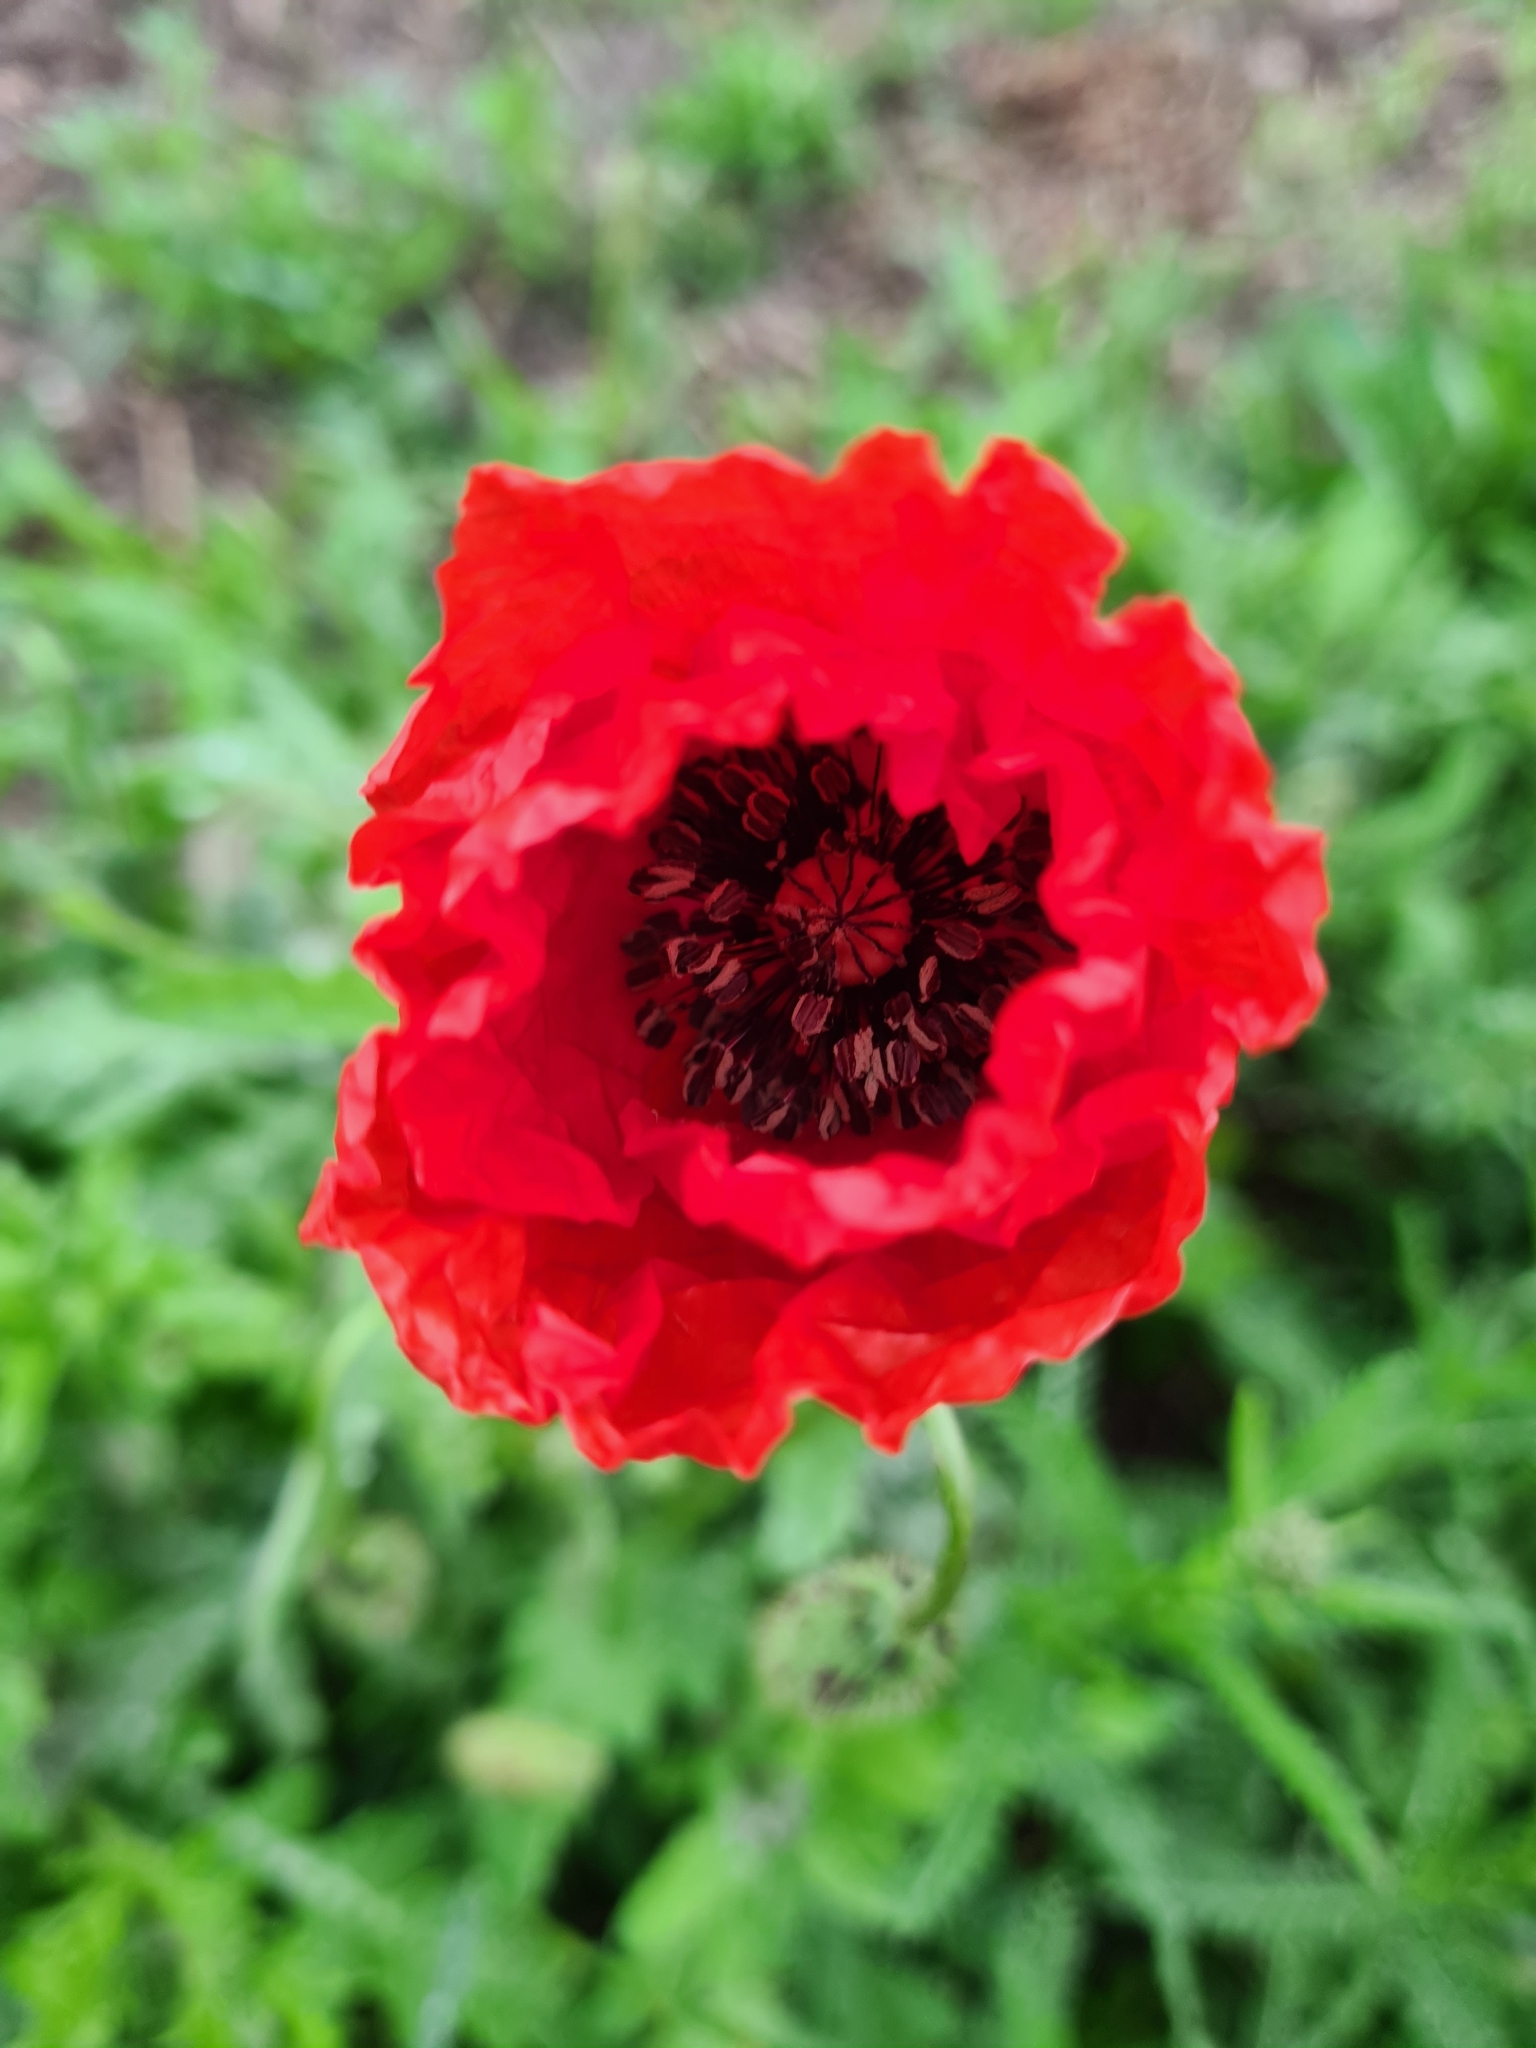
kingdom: Plantae
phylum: Tracheophyta
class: Magnoliopsida
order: Ranunculales
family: Papaveraceae
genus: Papaver
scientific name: Papaver rhoeas
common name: Corn poppy
